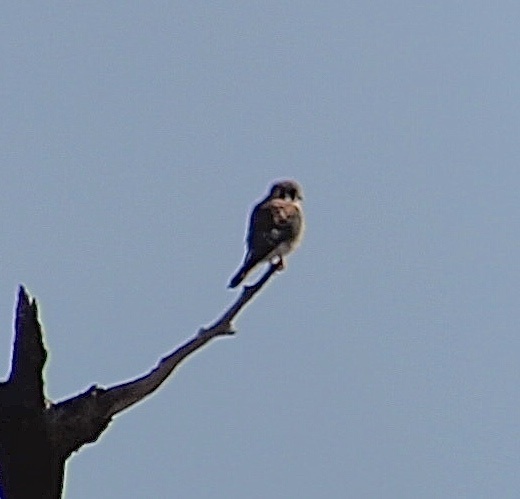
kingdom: Animalia
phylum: Chordata
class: Aves
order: Falconiformes
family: Falconidae
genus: Falco
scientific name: Falco sparverius
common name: American kestrel
